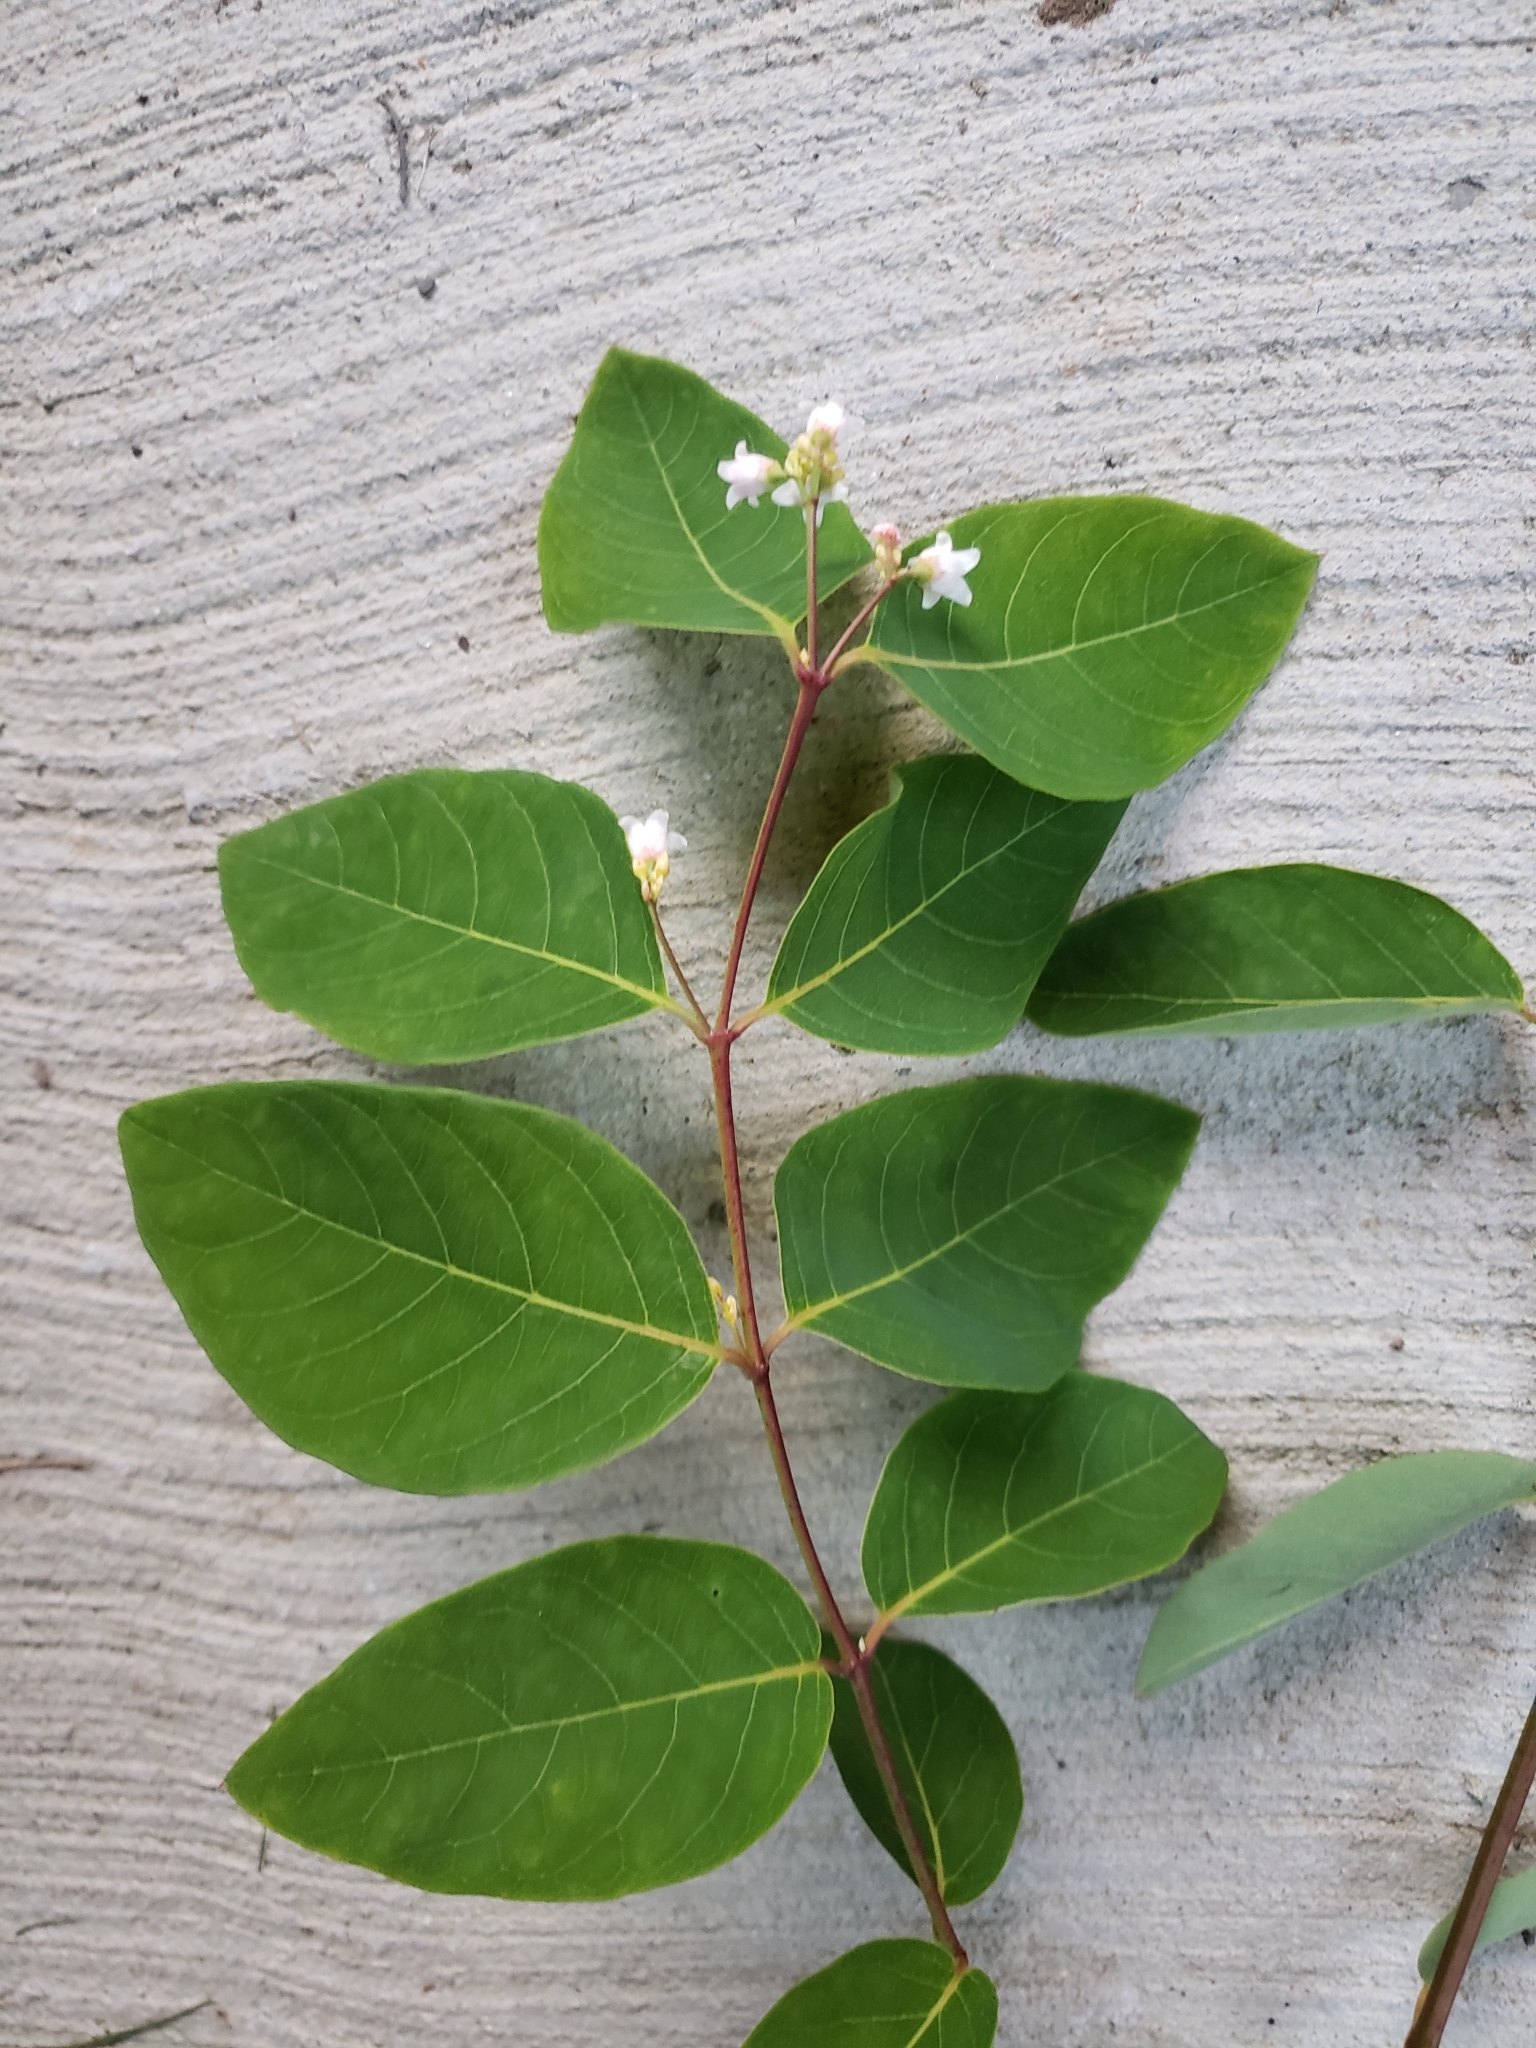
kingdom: Plantae
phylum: Tracheophyta
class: Magnoliopsida
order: Gentianales
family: Apocynaceae
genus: Apocynum
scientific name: Apocynum androsaemifolium
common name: Spreading dogbane
